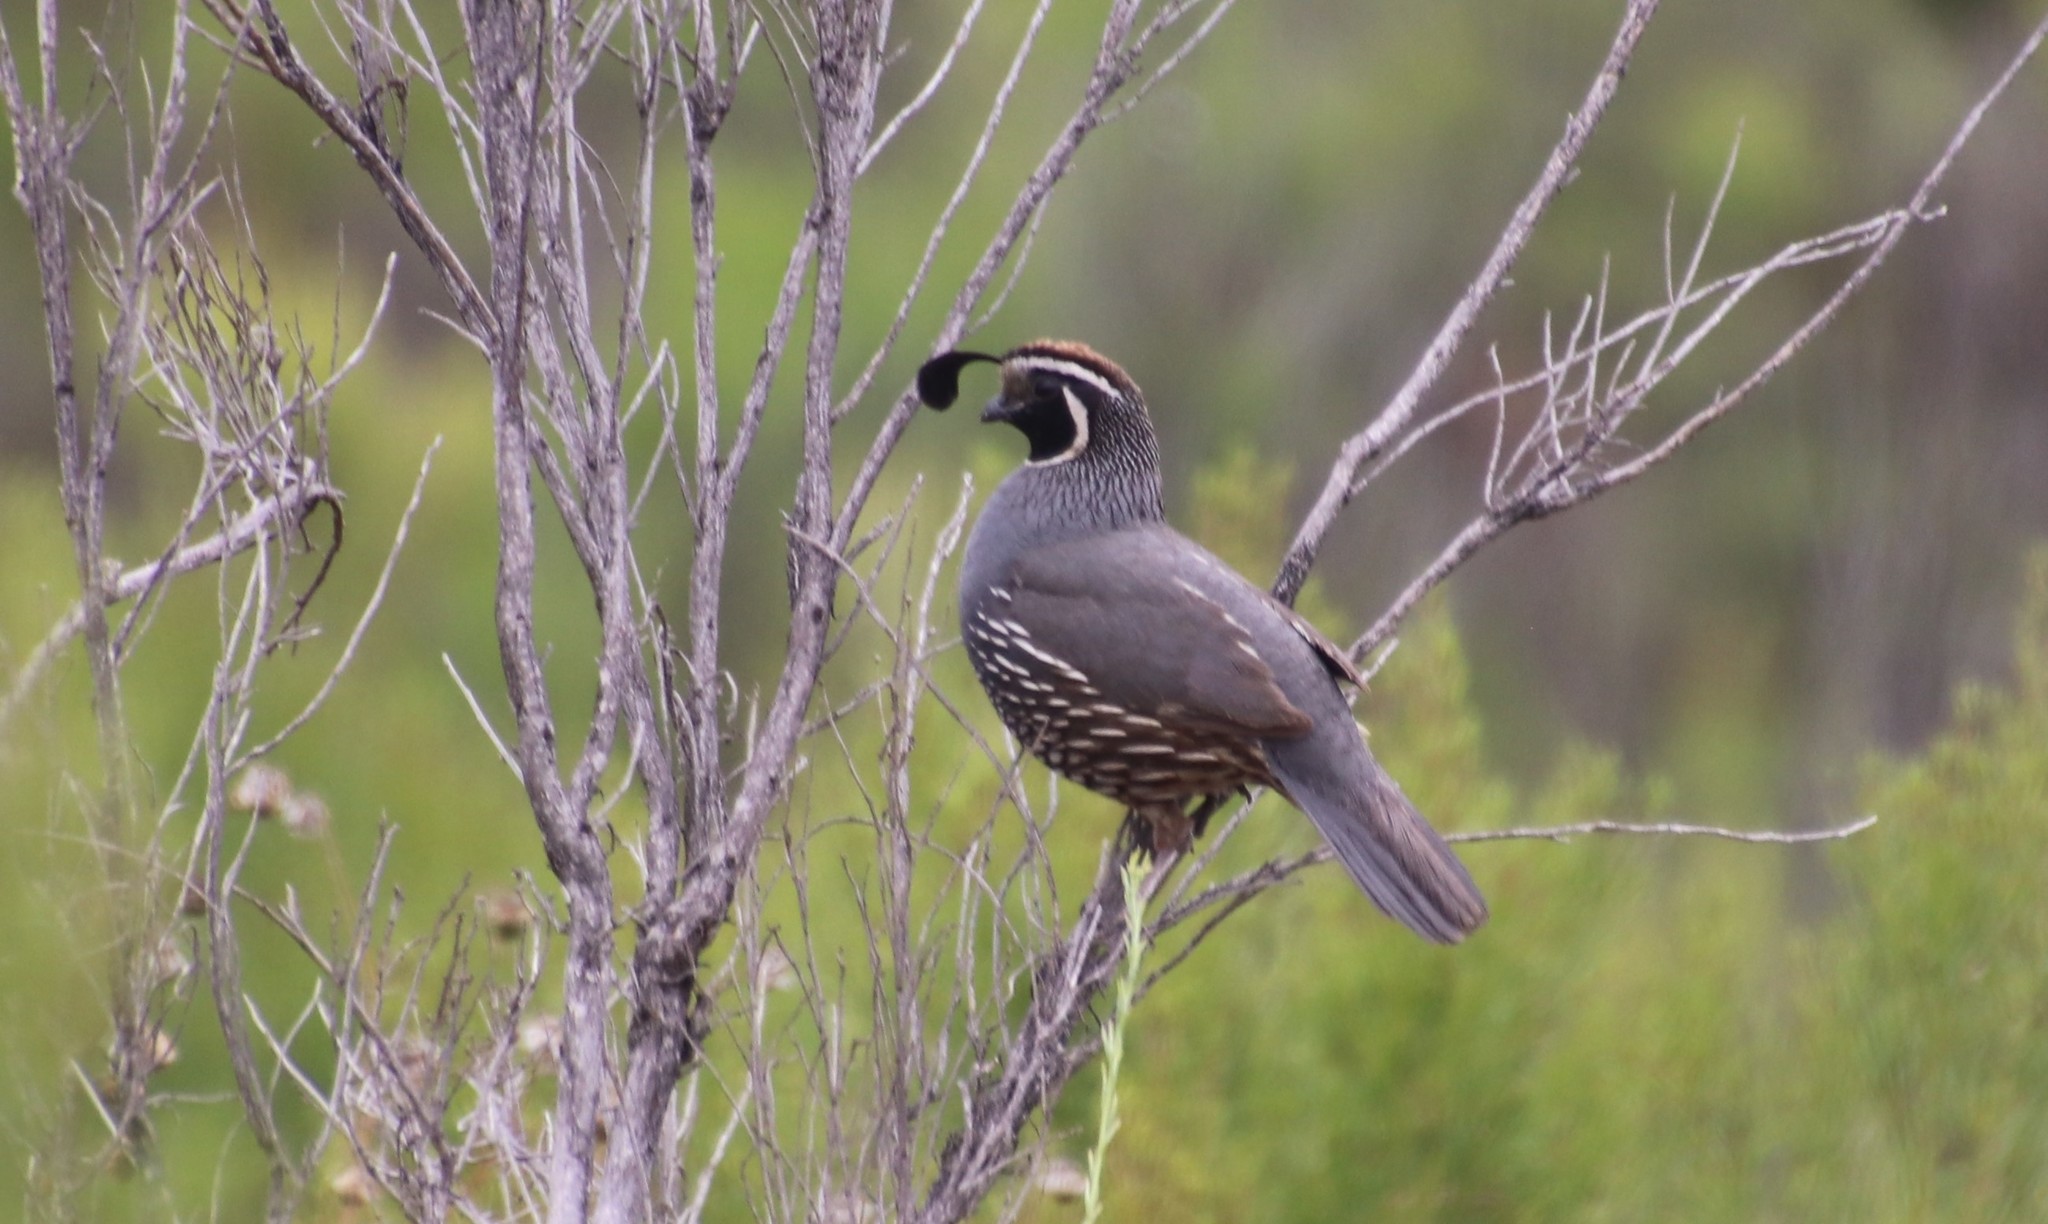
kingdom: Animalia
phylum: Chordata
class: Aves
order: Galliformes
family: Odontophoridae
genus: Callipepla
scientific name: Callipepla californica
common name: California quail
